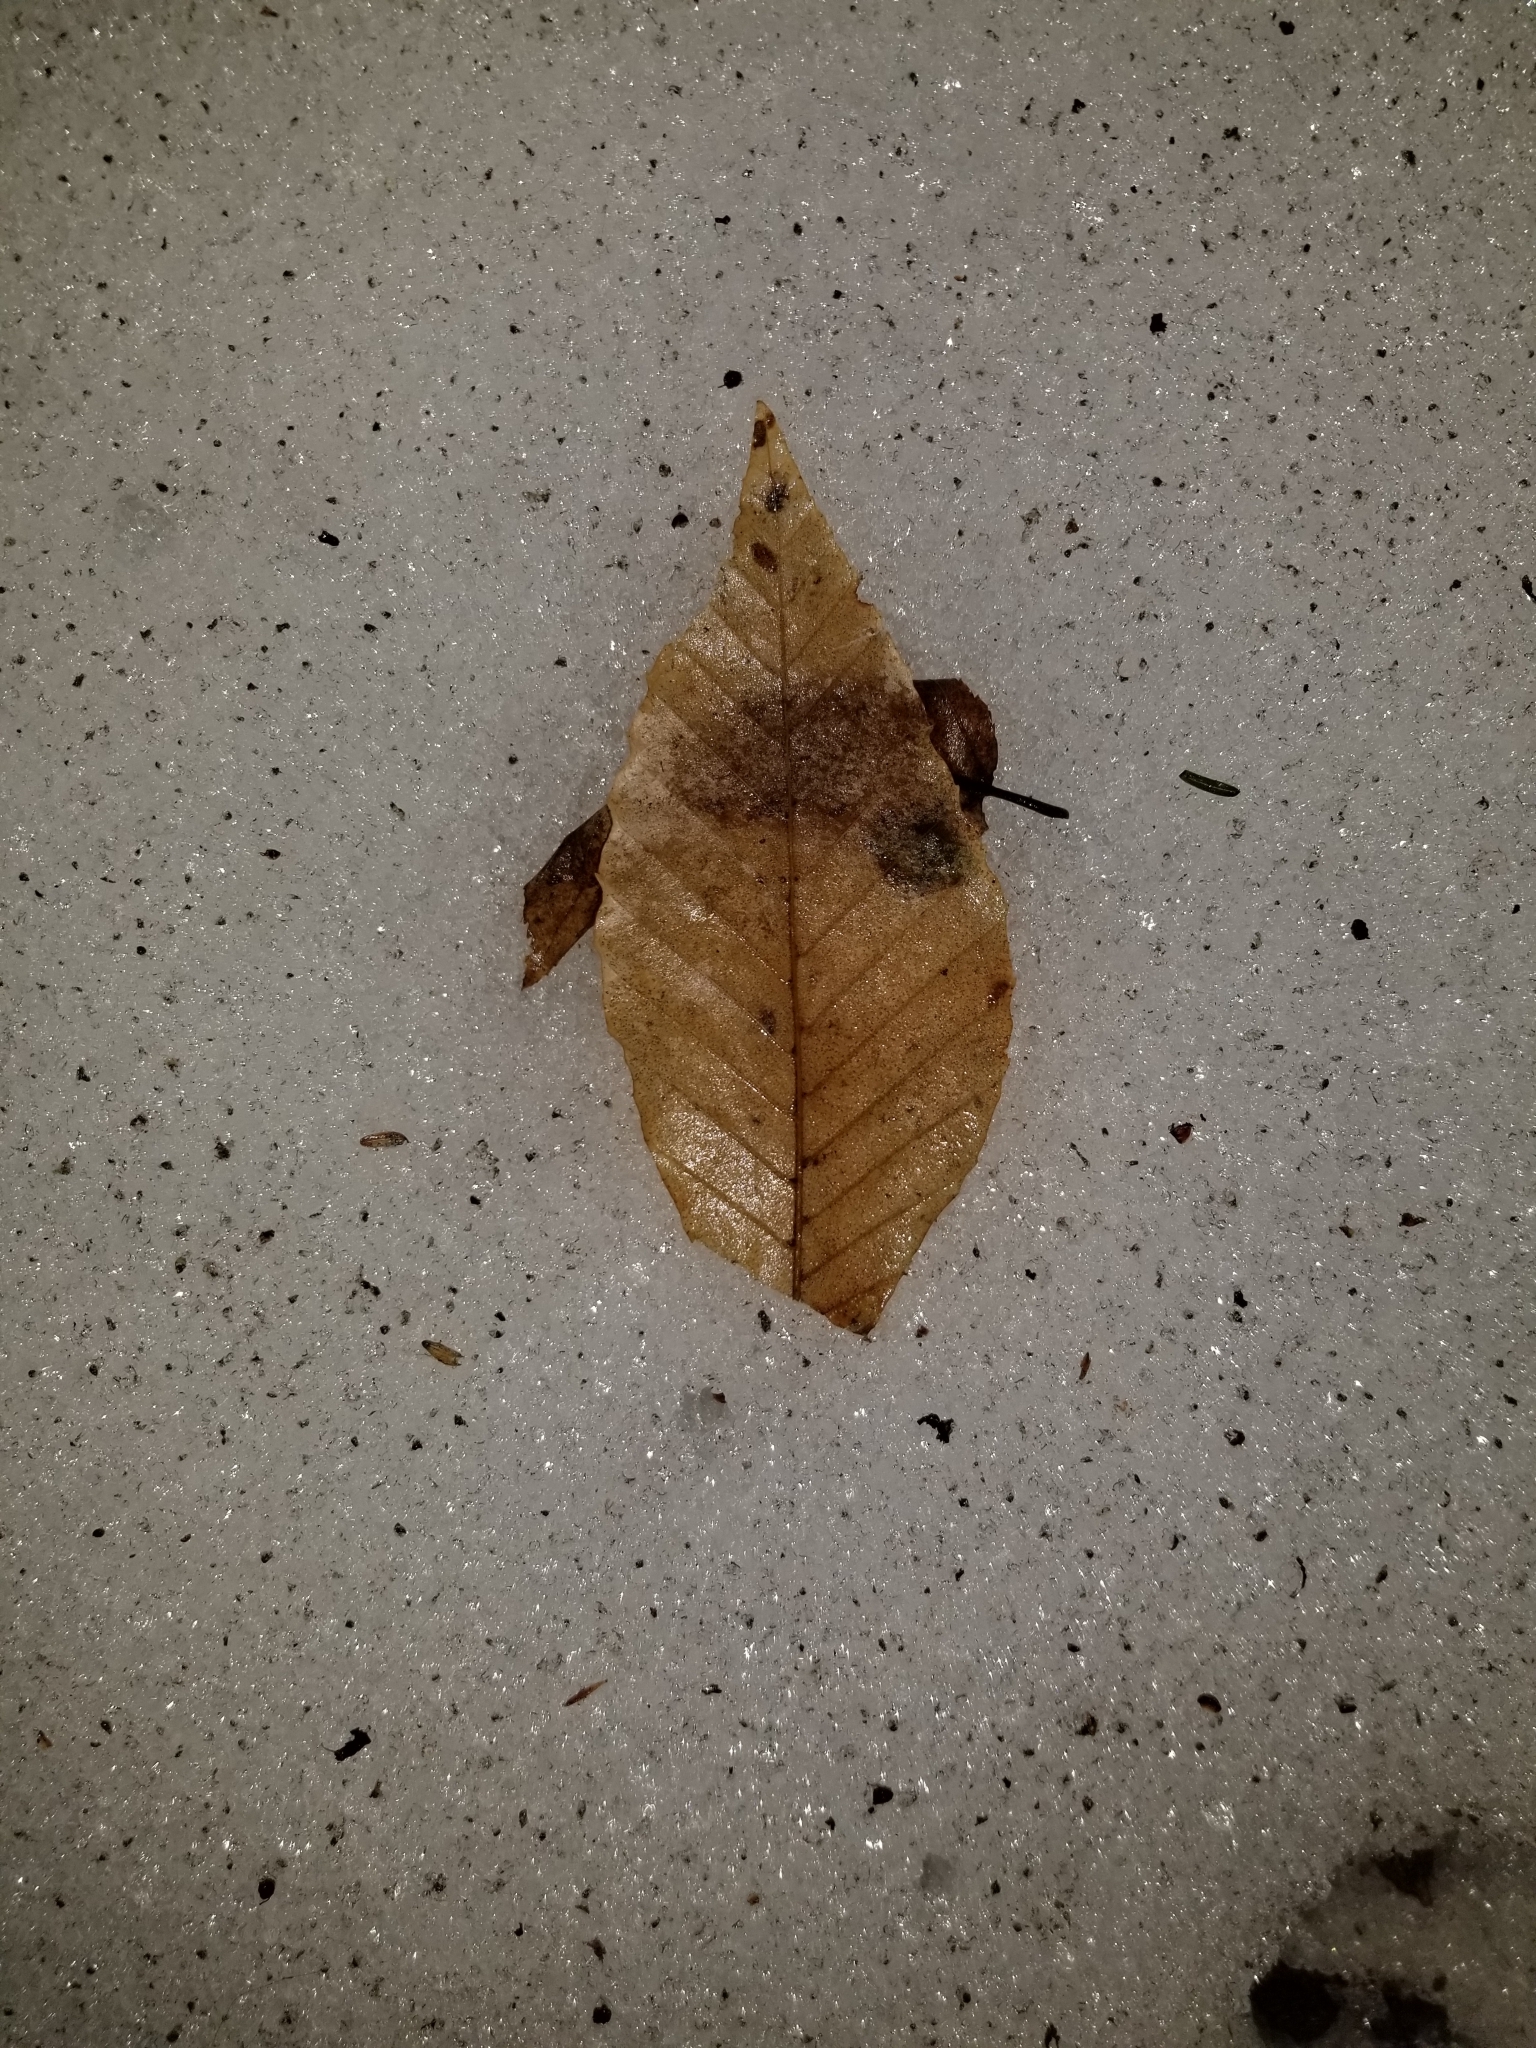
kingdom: Plantae
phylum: Tracheophyta
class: Magnoliopsida
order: Fagales
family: Fagaceae
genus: Fagus
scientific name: Fagus grandifolia
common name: American beech
